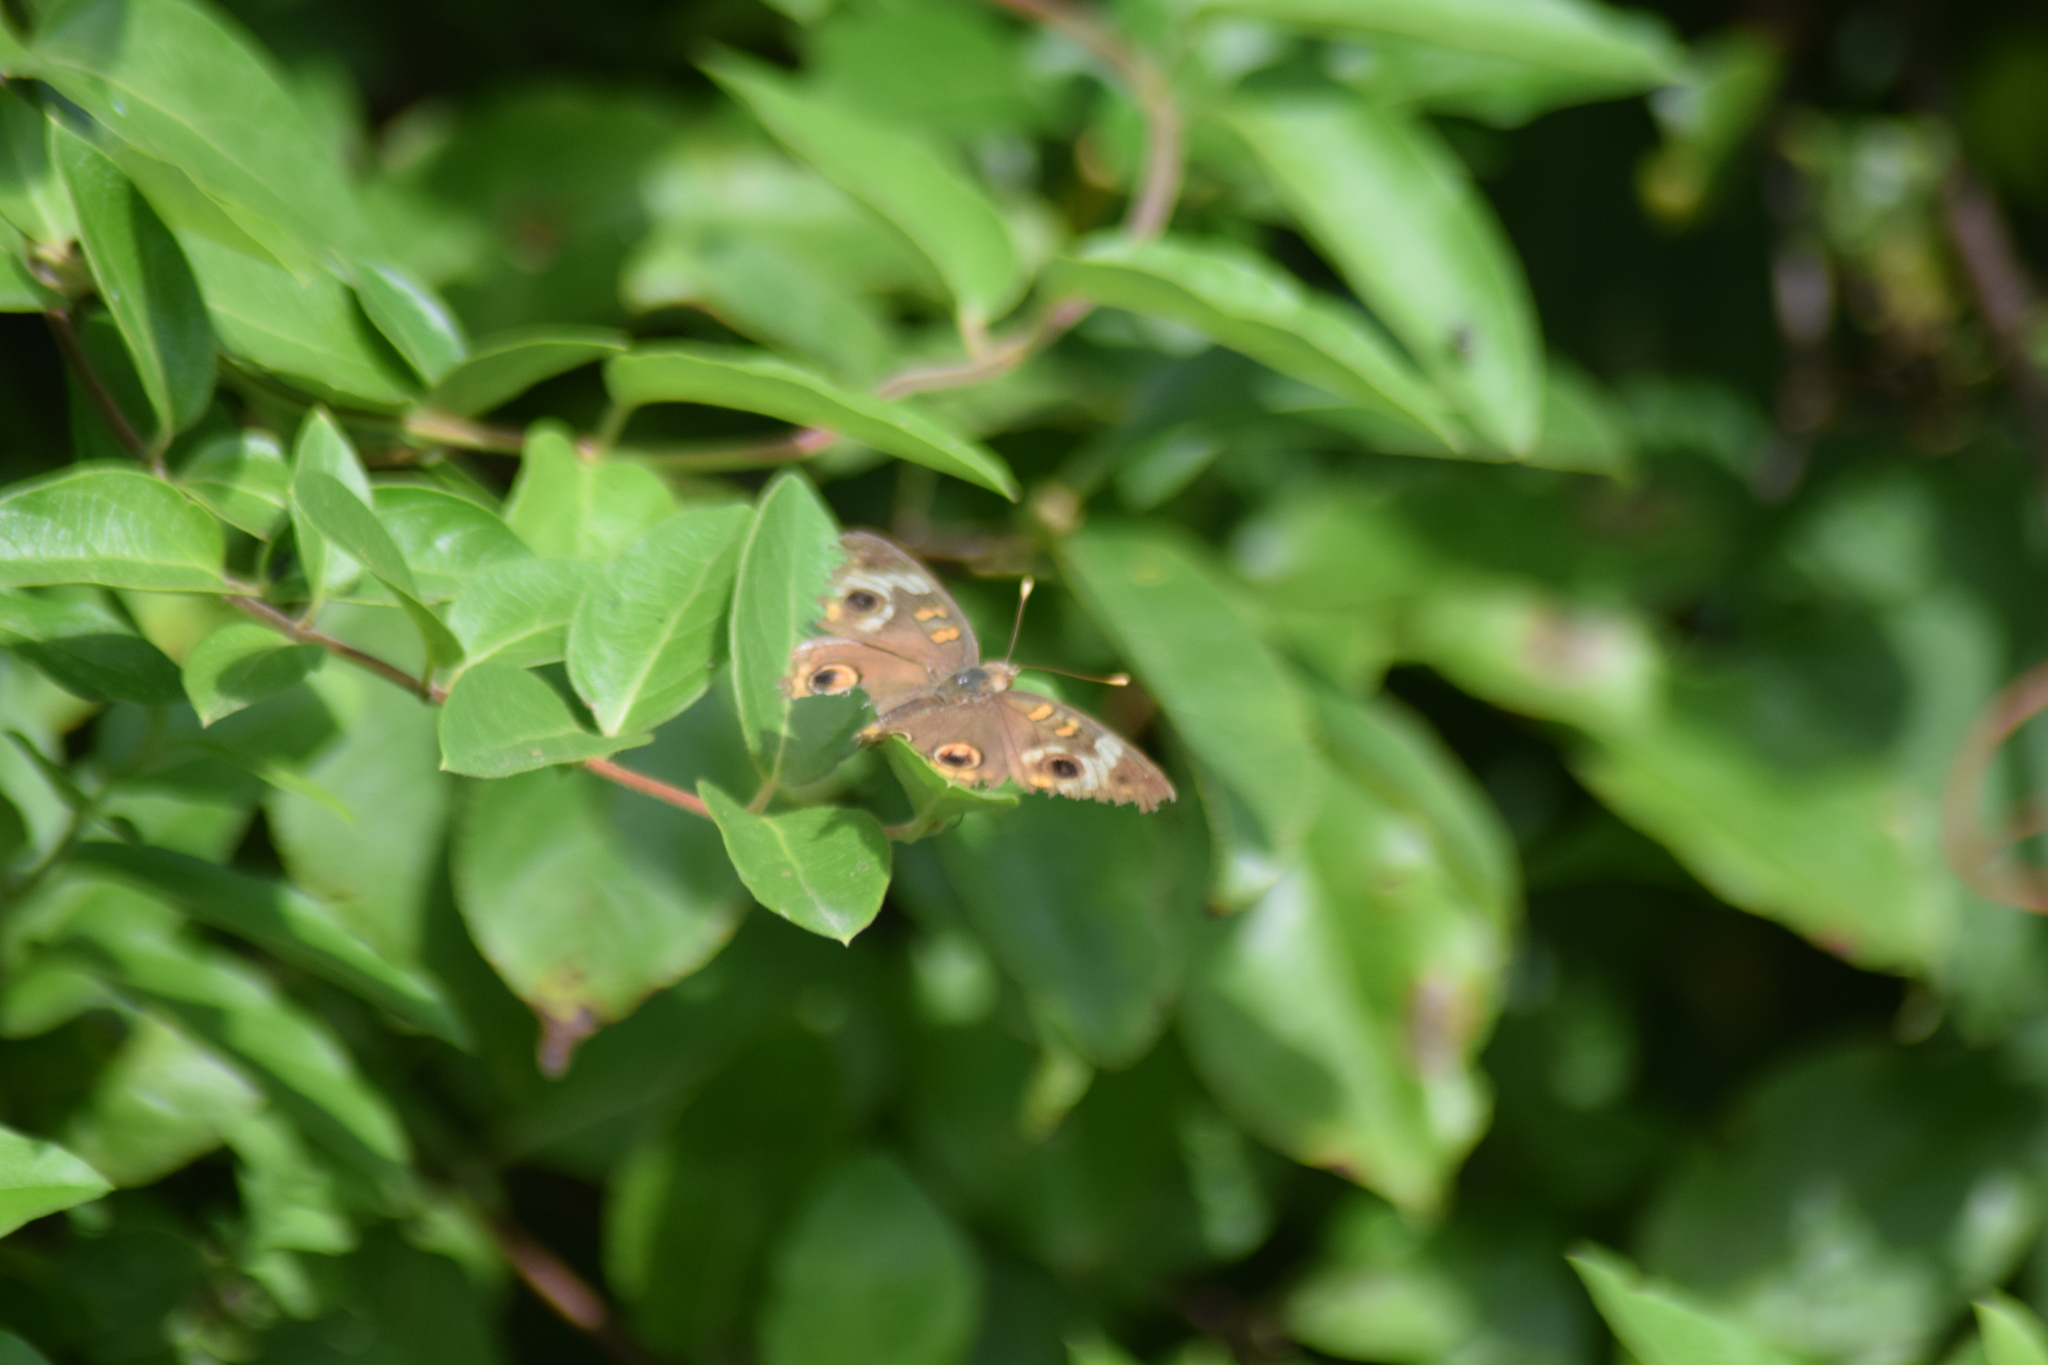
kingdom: Animalia
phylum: Arthropoda
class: Insecta
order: Lepidoptera
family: Nymphalidae
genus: Junonia
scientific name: Junonia coenia
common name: Common buckeye
